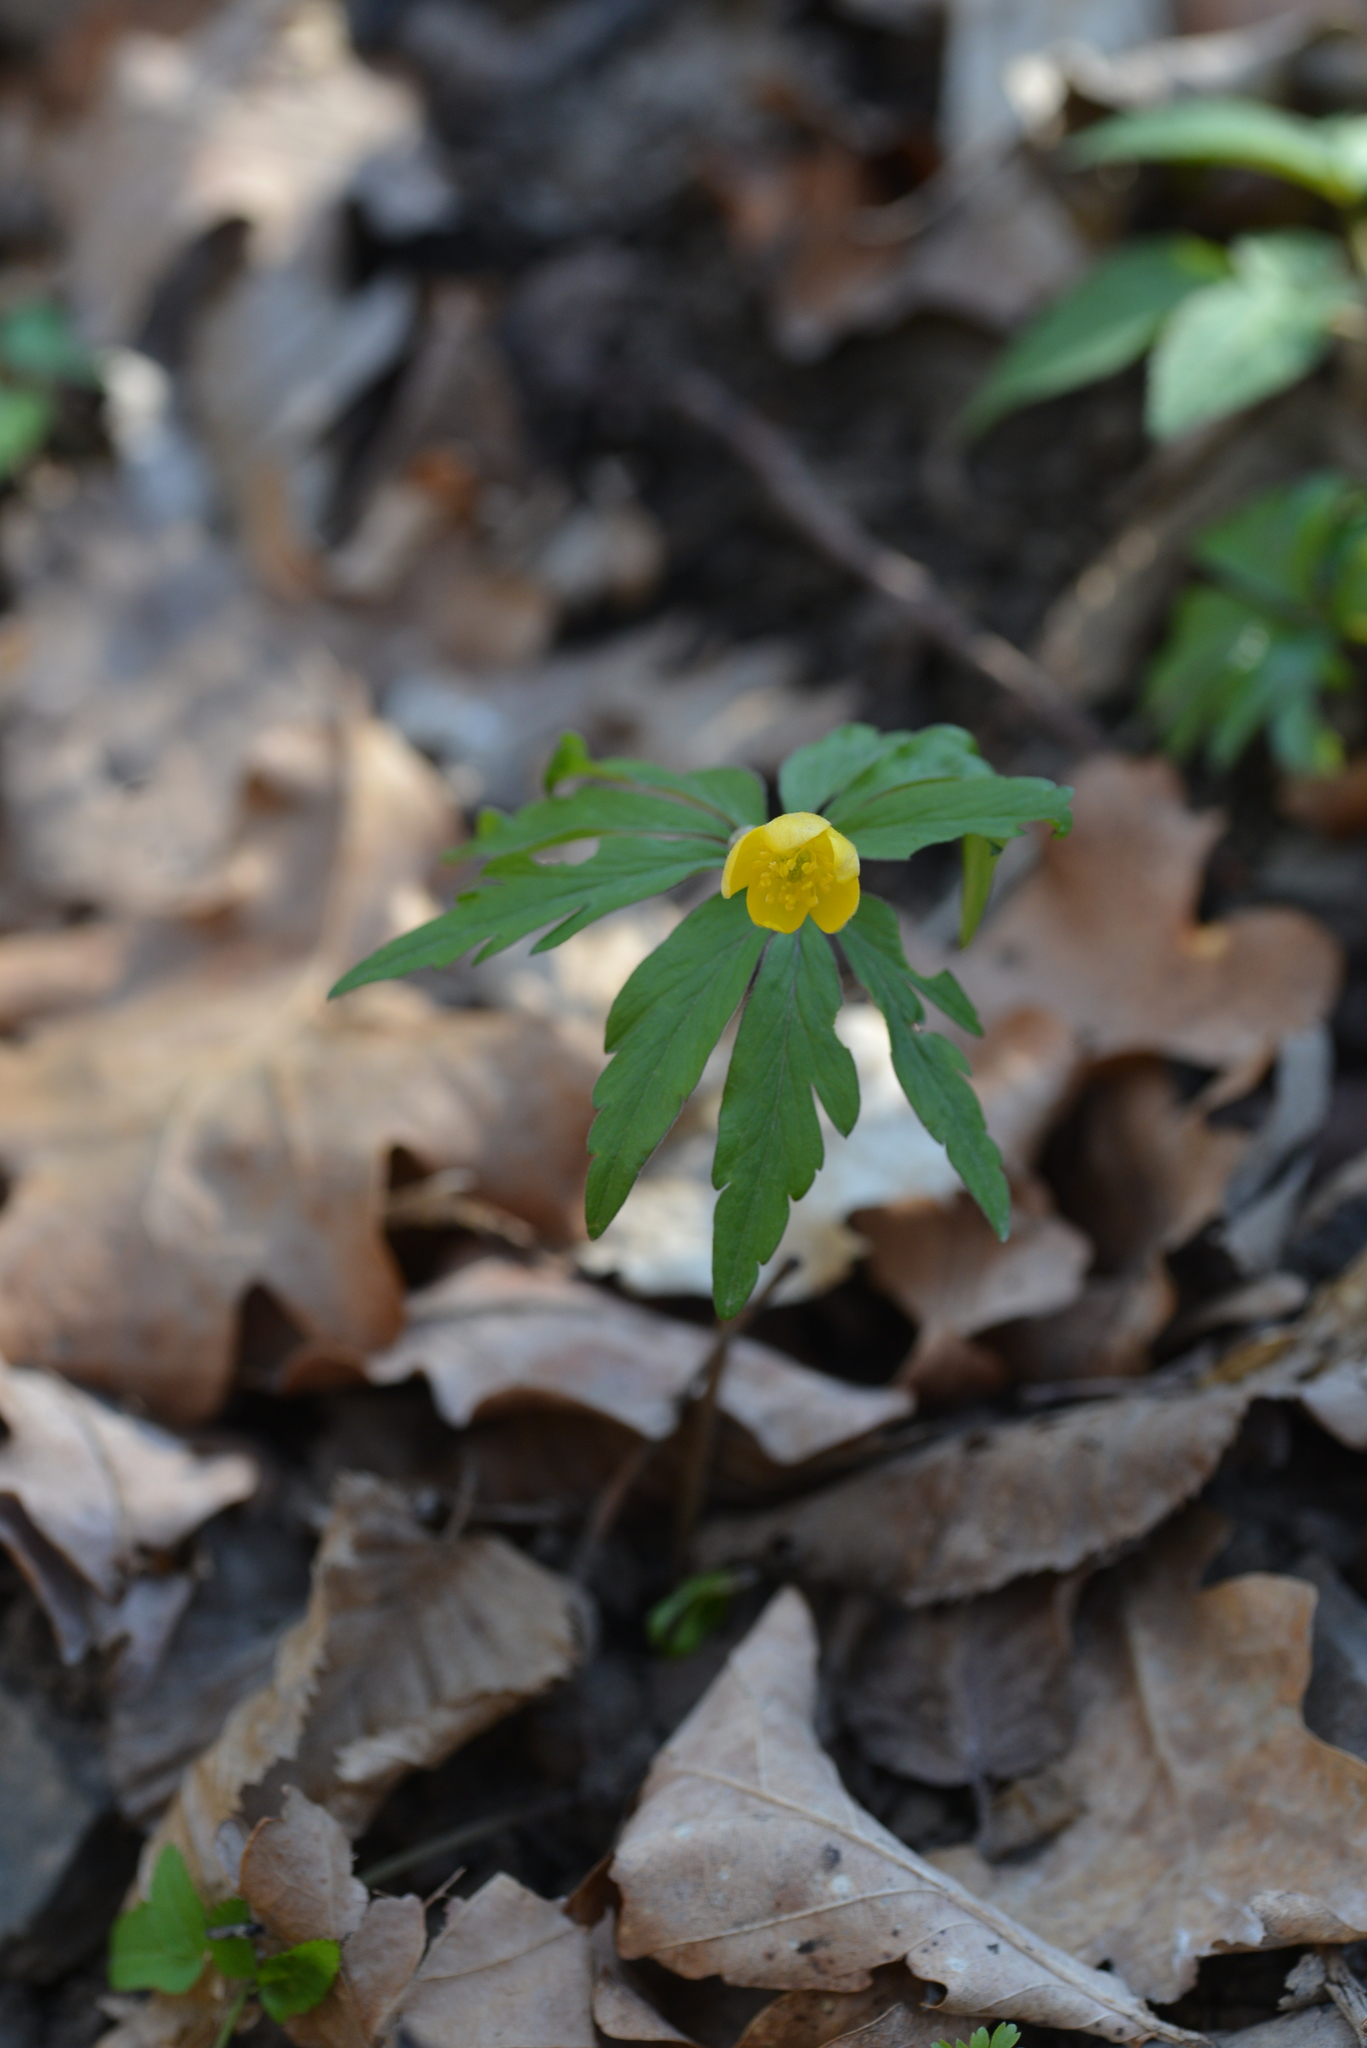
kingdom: Plantae
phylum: Tracheophyta
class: Magnoliopsida
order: Ranunculales
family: Ranunculaceae
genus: Anemone
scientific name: Anemone ranunculoides
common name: Yellow anemone
